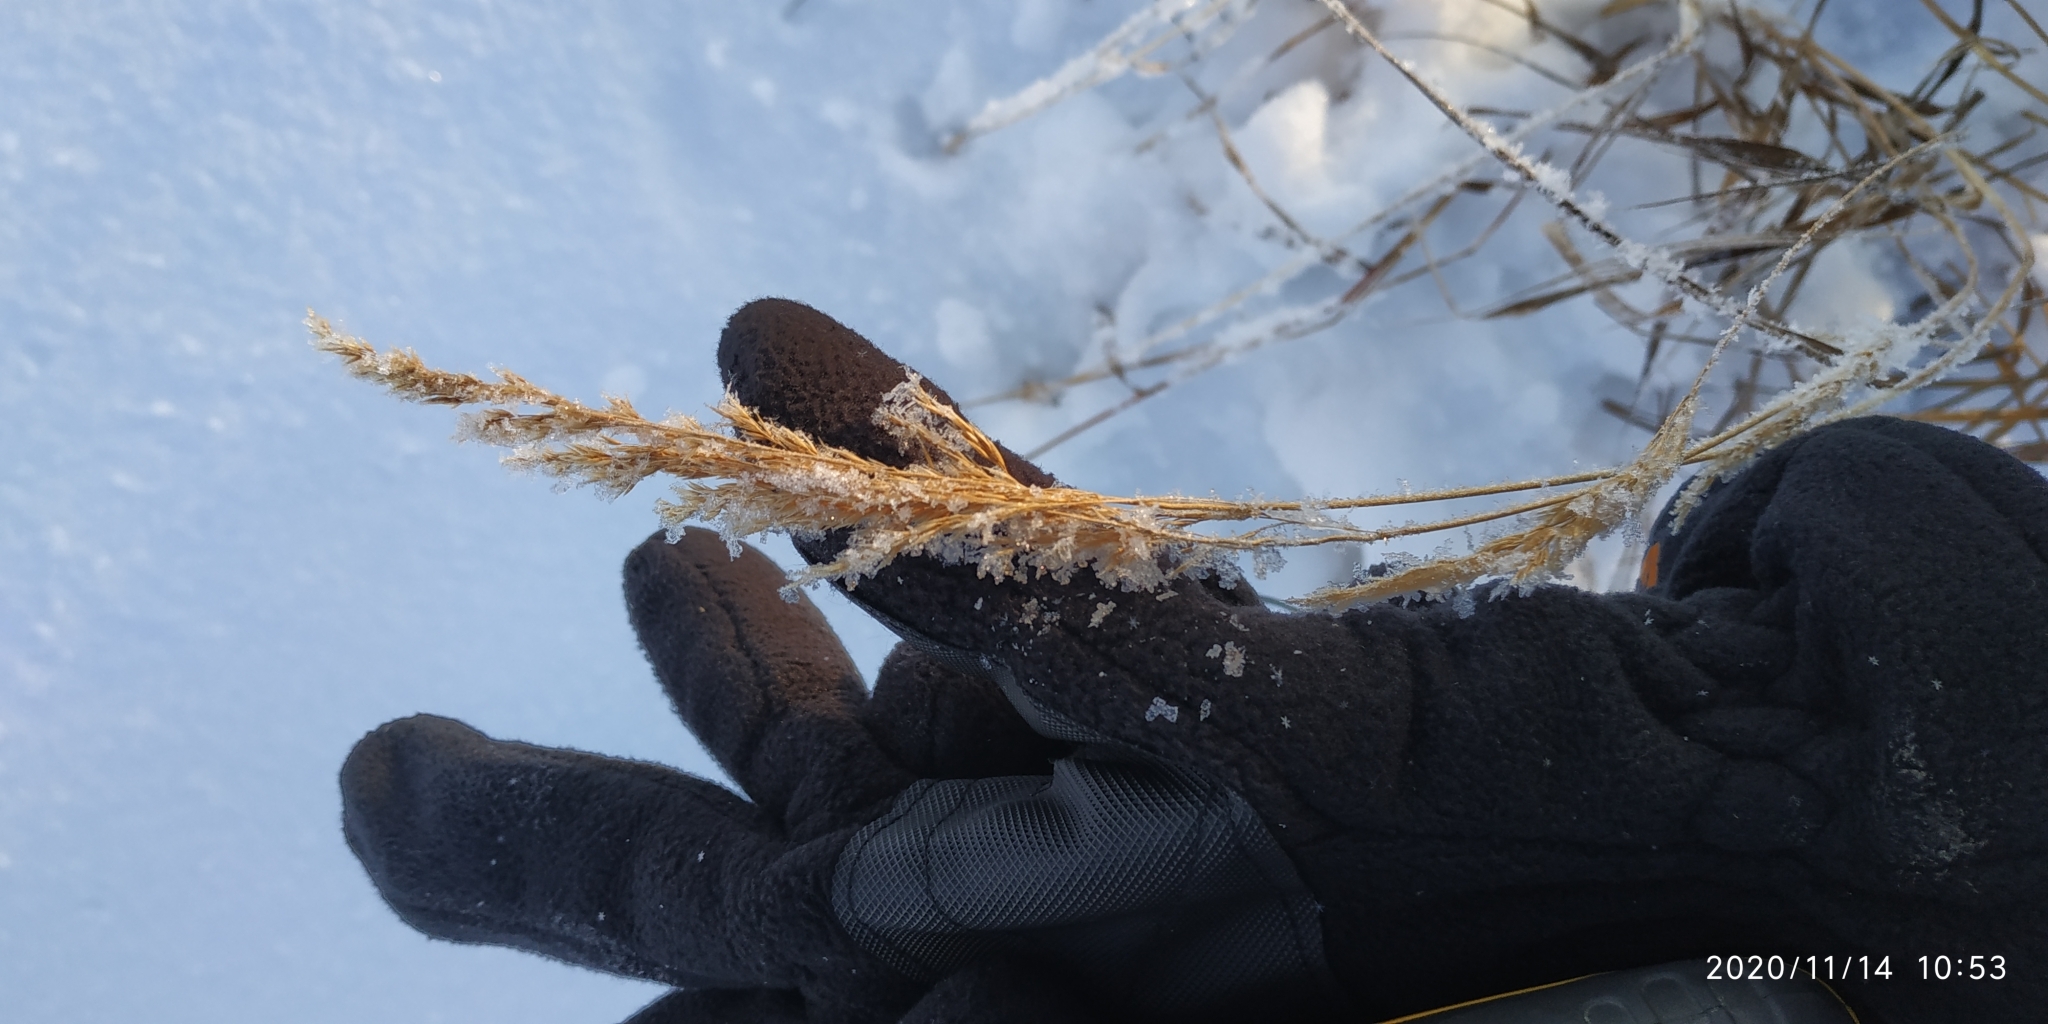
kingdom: Plantae
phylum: Tracheophyta
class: Liliopsida
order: Poales
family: Poaceae
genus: Calamagrostis
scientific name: Calamagrostis purpurea
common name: Scandinavian small-reed
